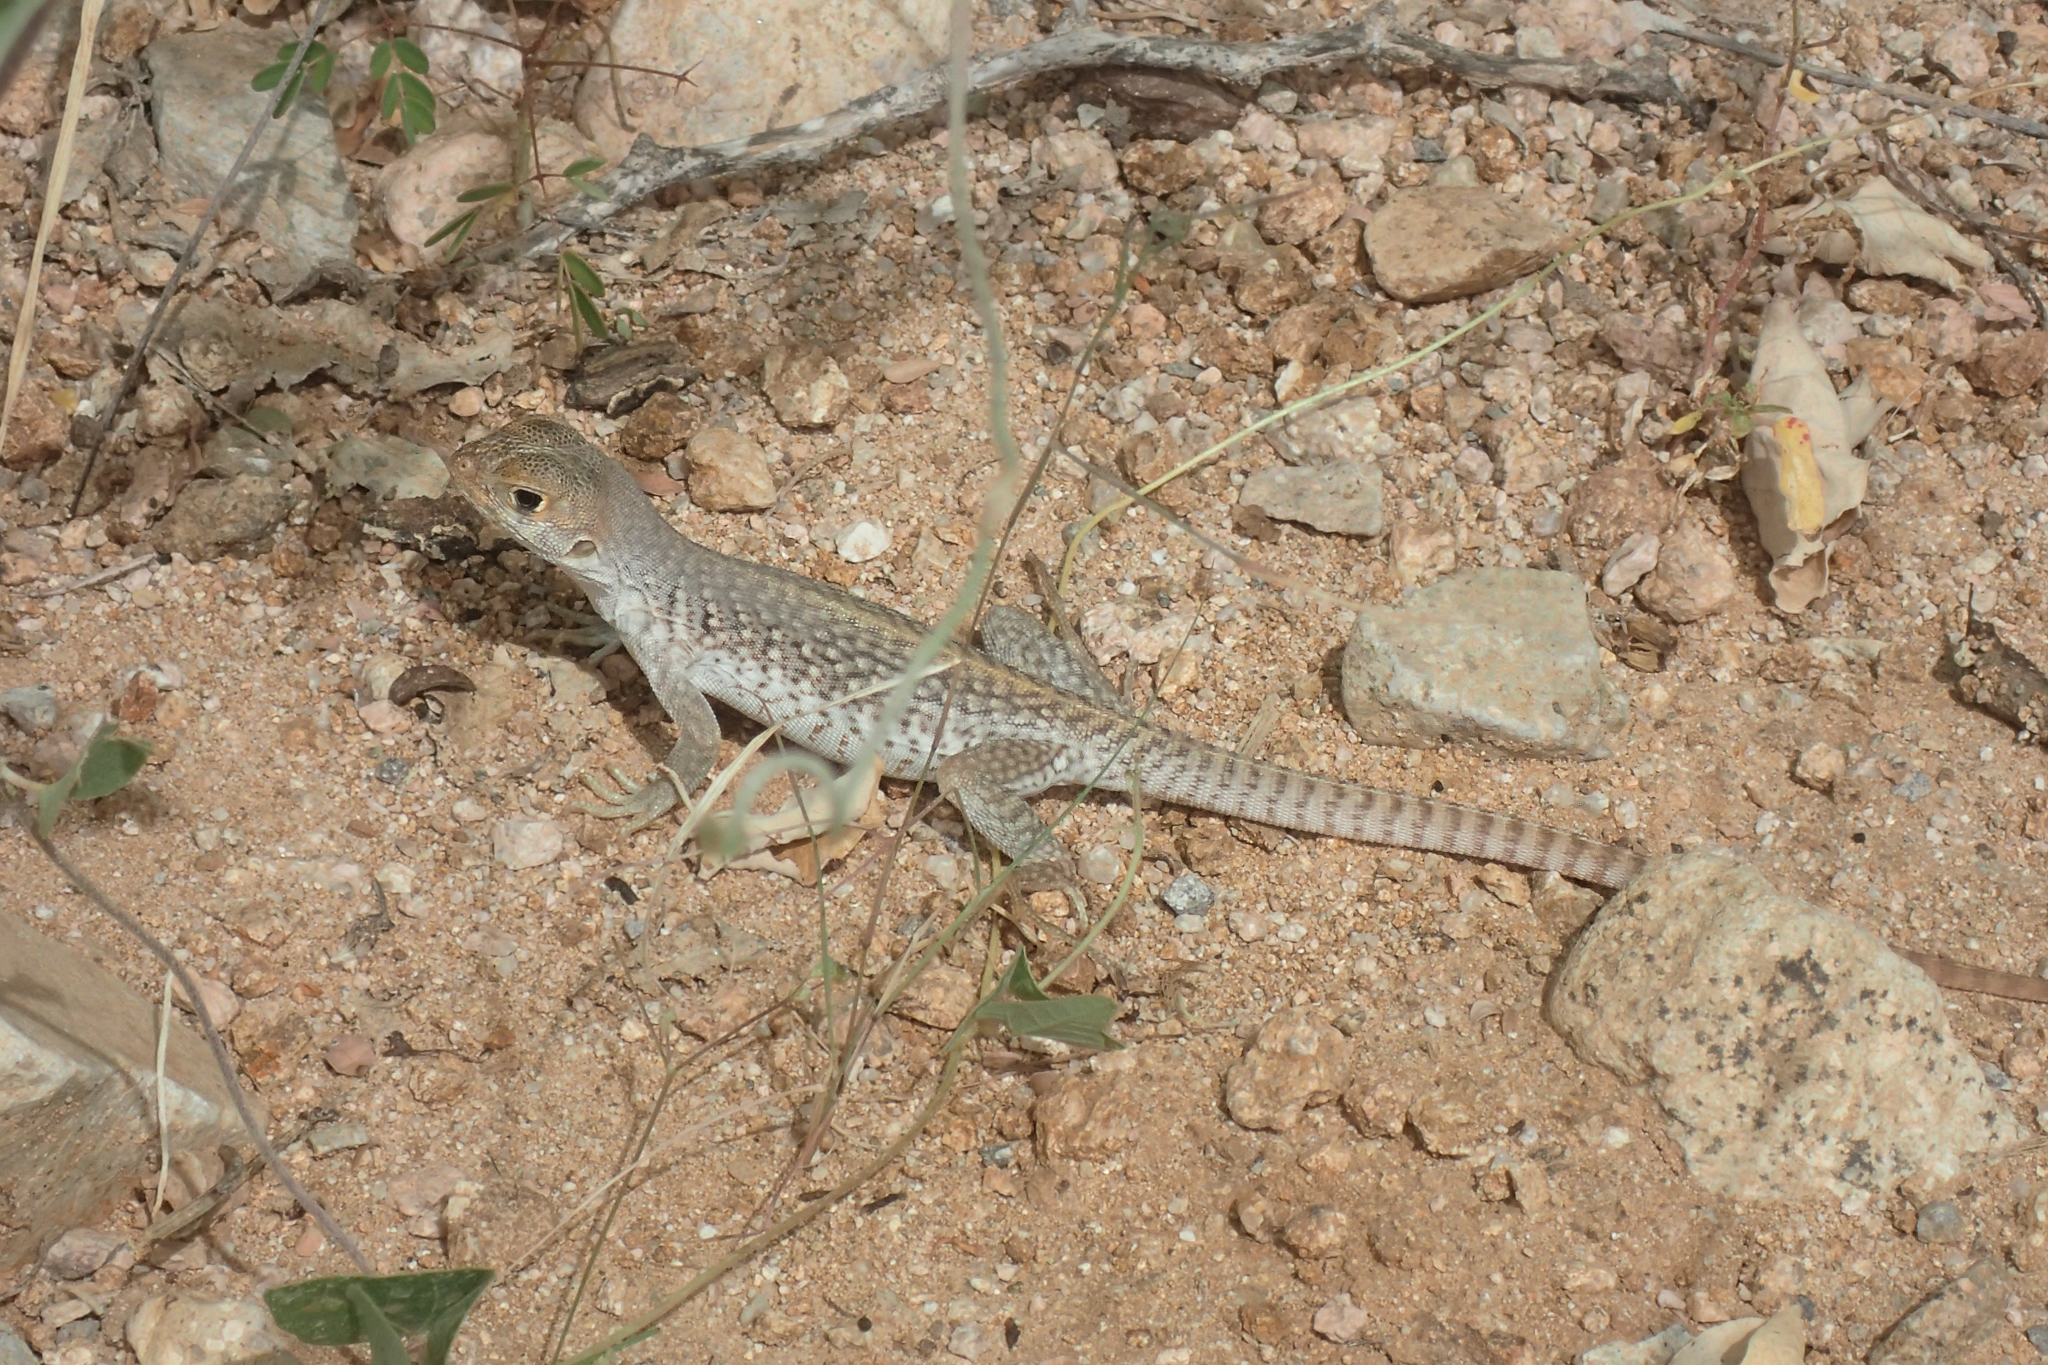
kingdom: Animalia
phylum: Chordata
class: Squamata
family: Iguanidae
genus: Dipsosaurus
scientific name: Dipsosaurus dorsalis
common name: Desert iguana
